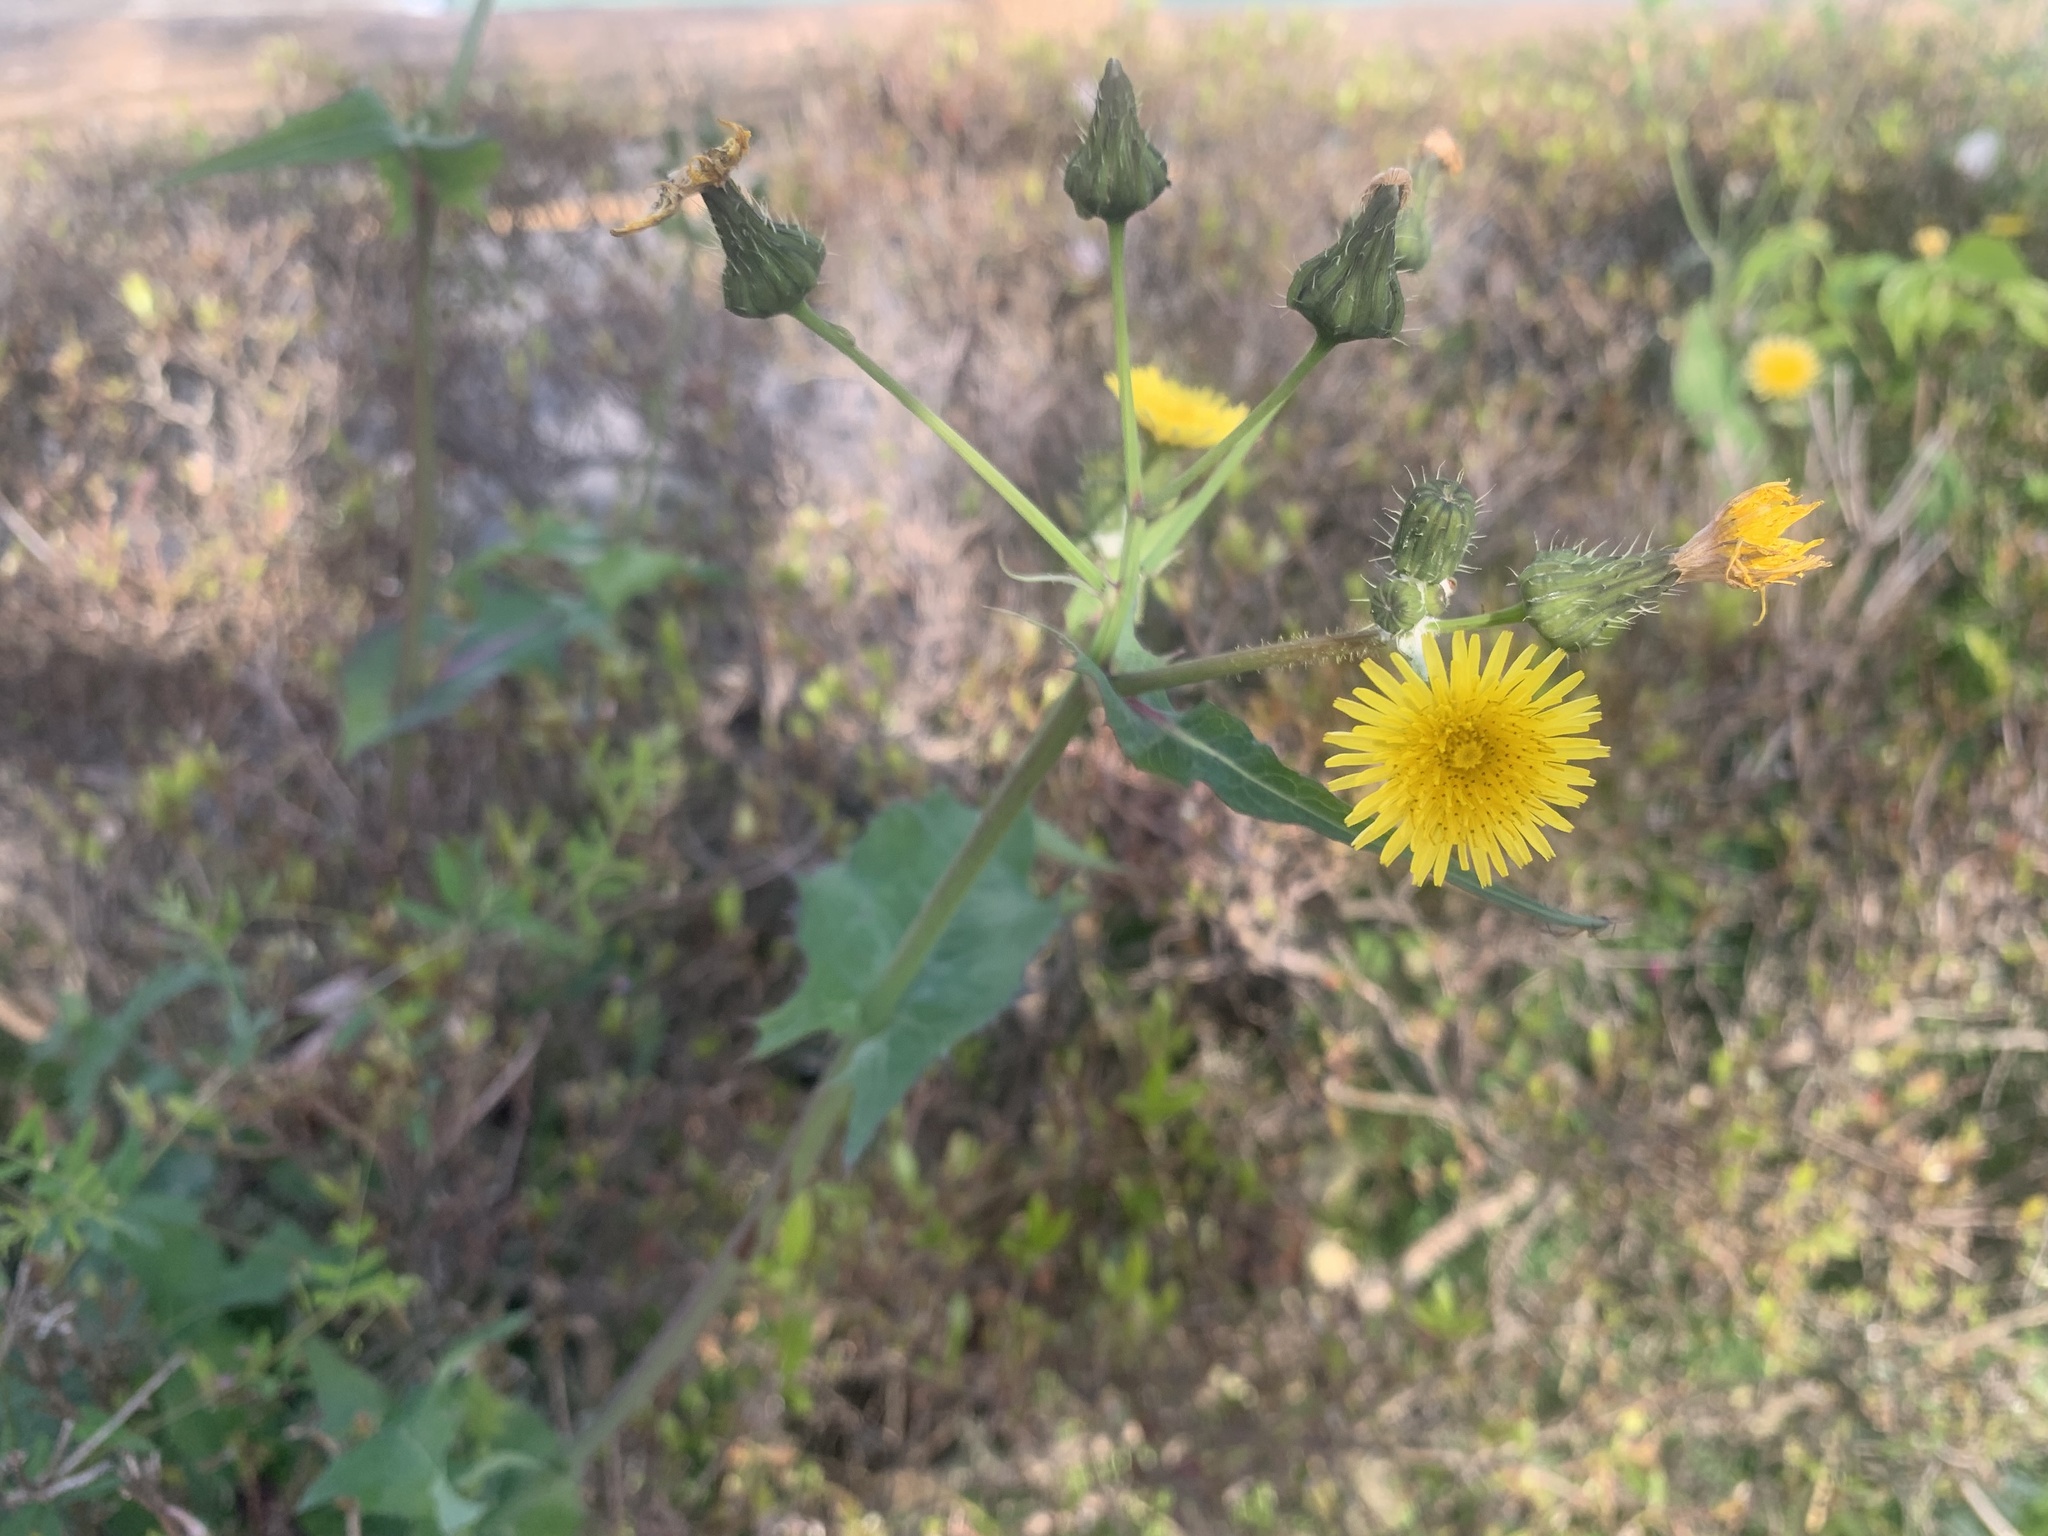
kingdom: Plantae
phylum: Tracheophyta
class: Magnoliopsida
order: Asterales
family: Asteraceae
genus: Sonchus
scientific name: Sonchus oleraceus
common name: Common sowthistle
